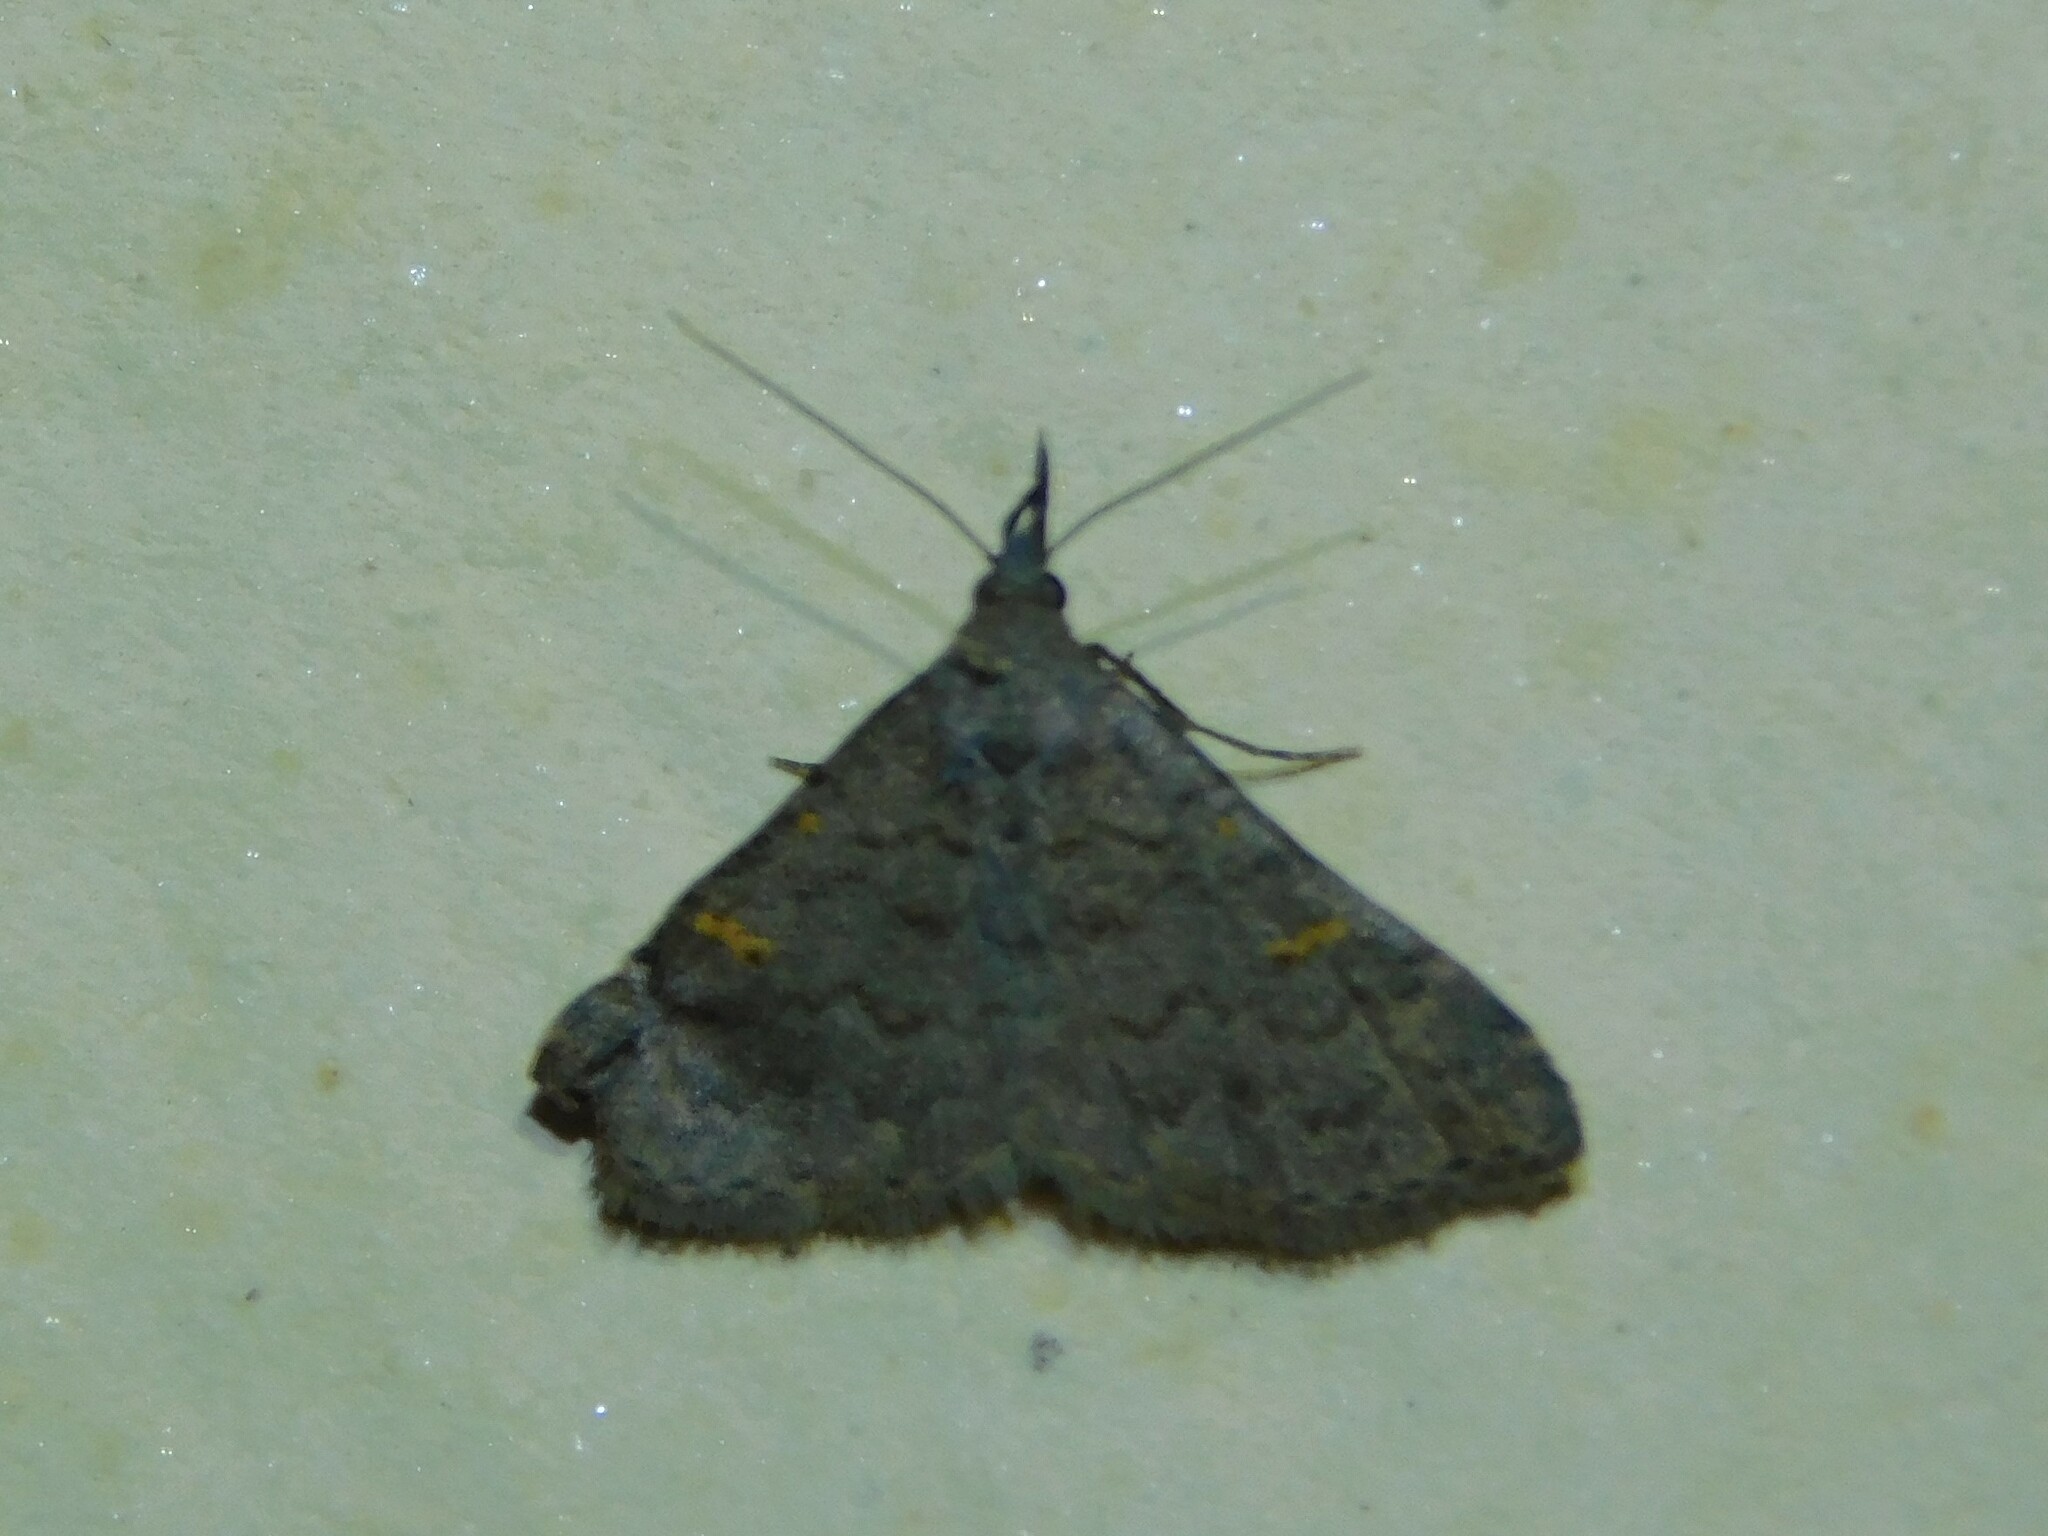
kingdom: Animalia
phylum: Arthropoda
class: Insecta
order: Lepidoptera
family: Erebidae
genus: Naarda
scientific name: Naarda xanthonephroides
